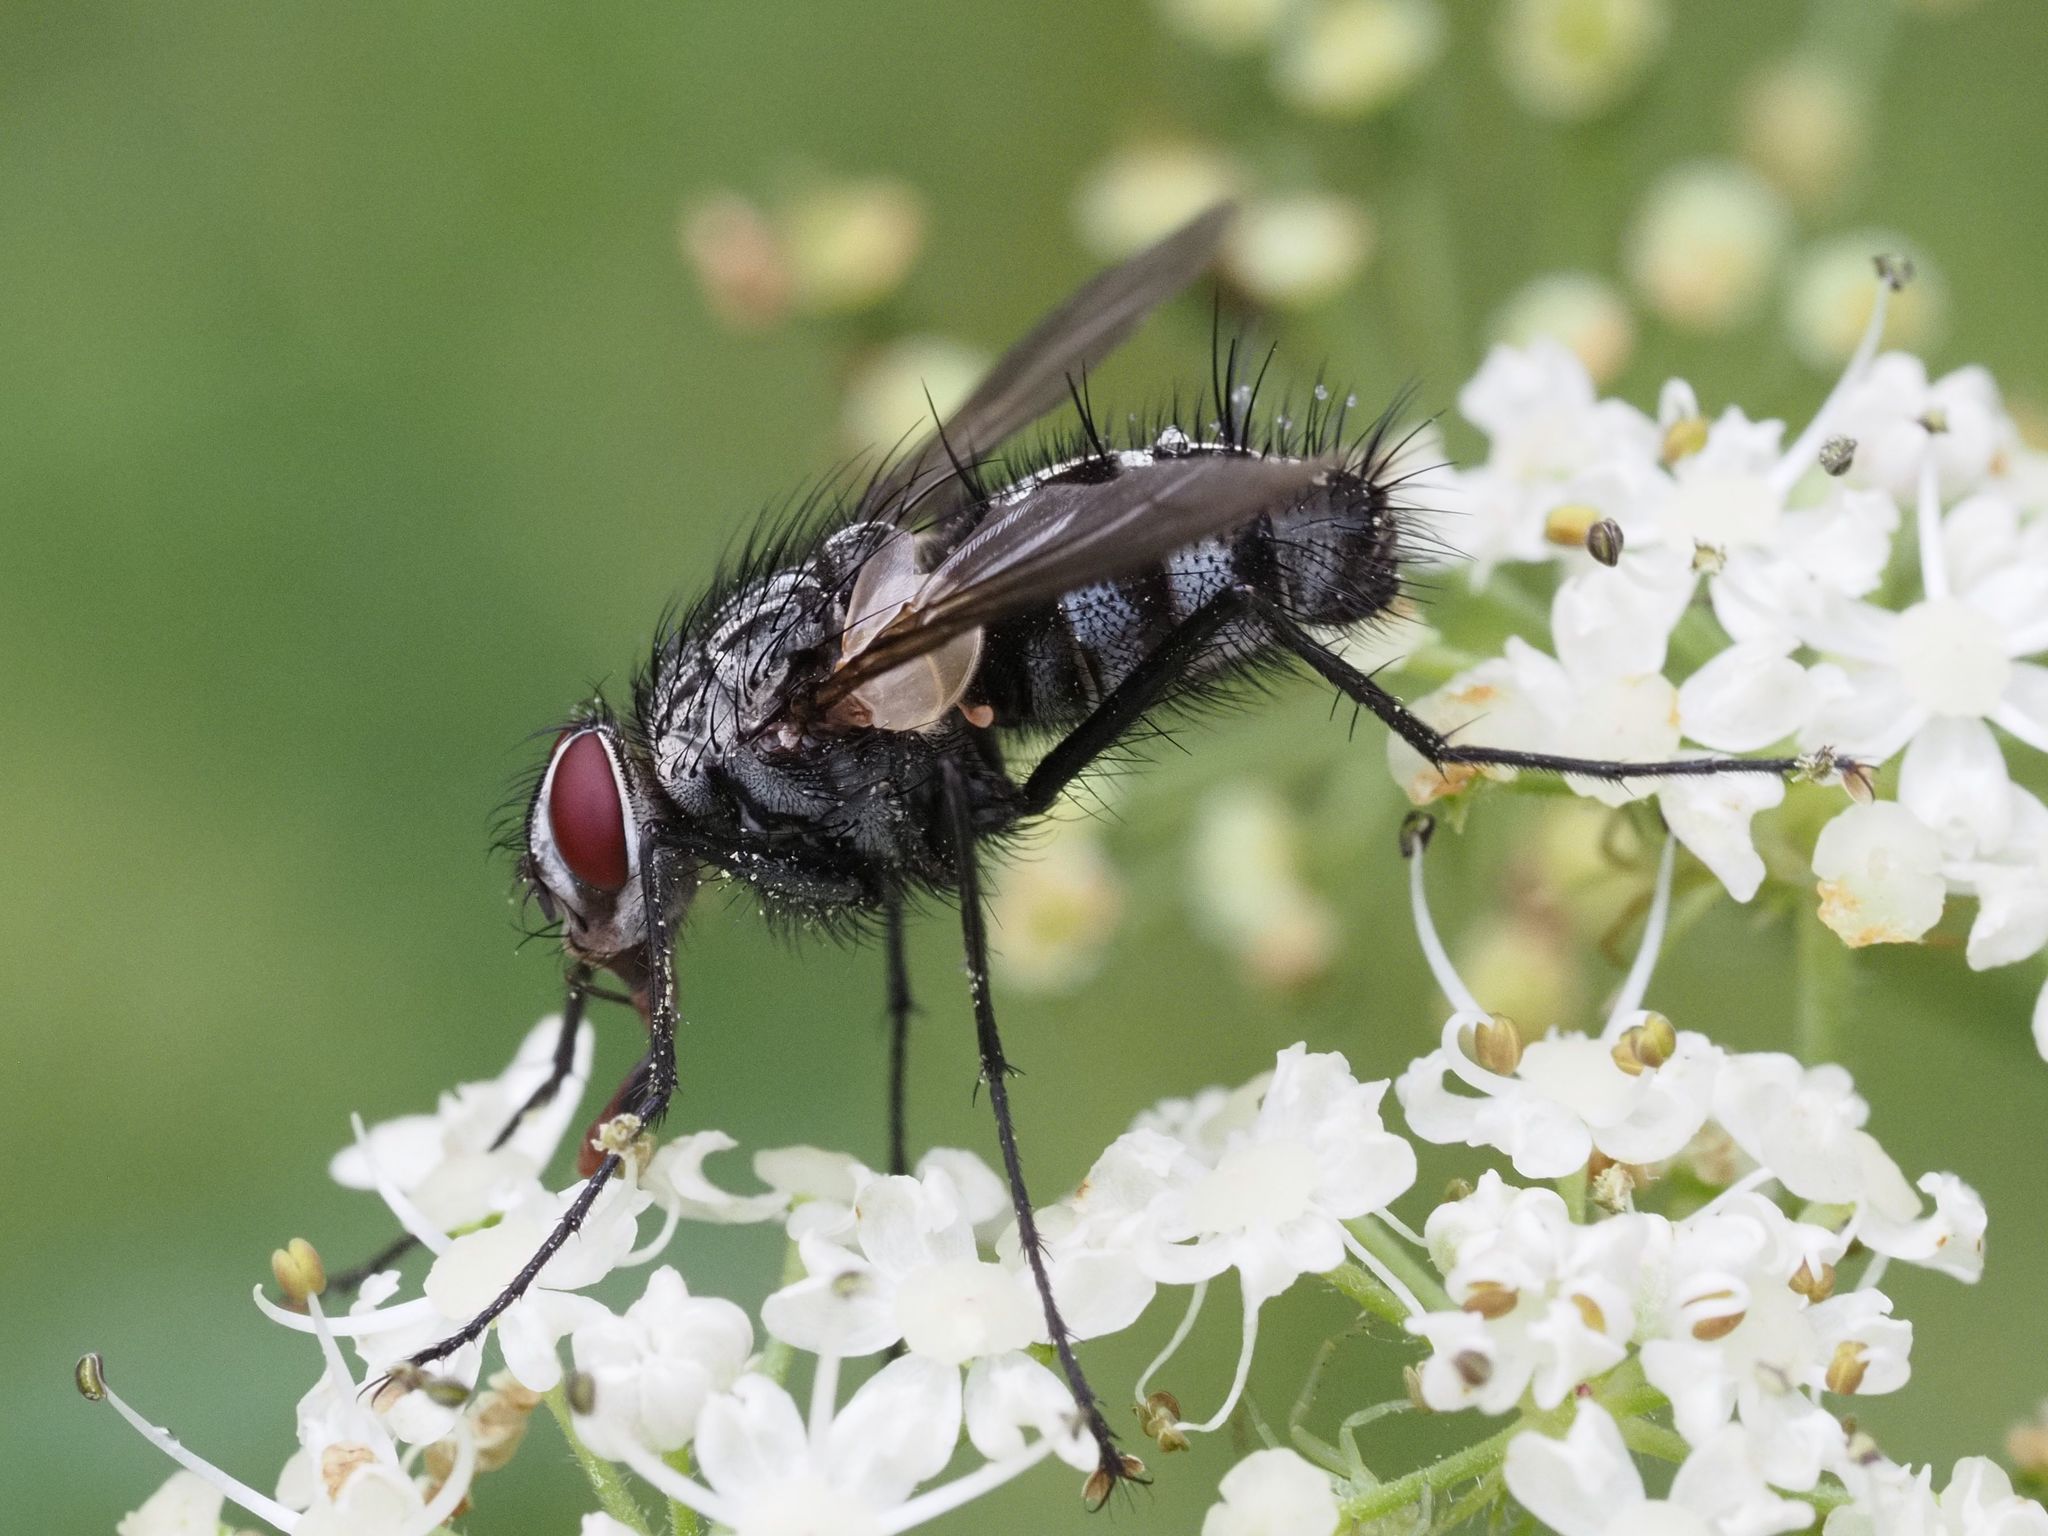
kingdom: Animalia
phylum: Arthropoda
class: Insecta
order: Diptera
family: Tachinidae
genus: Dinera
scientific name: Dinera ferina
